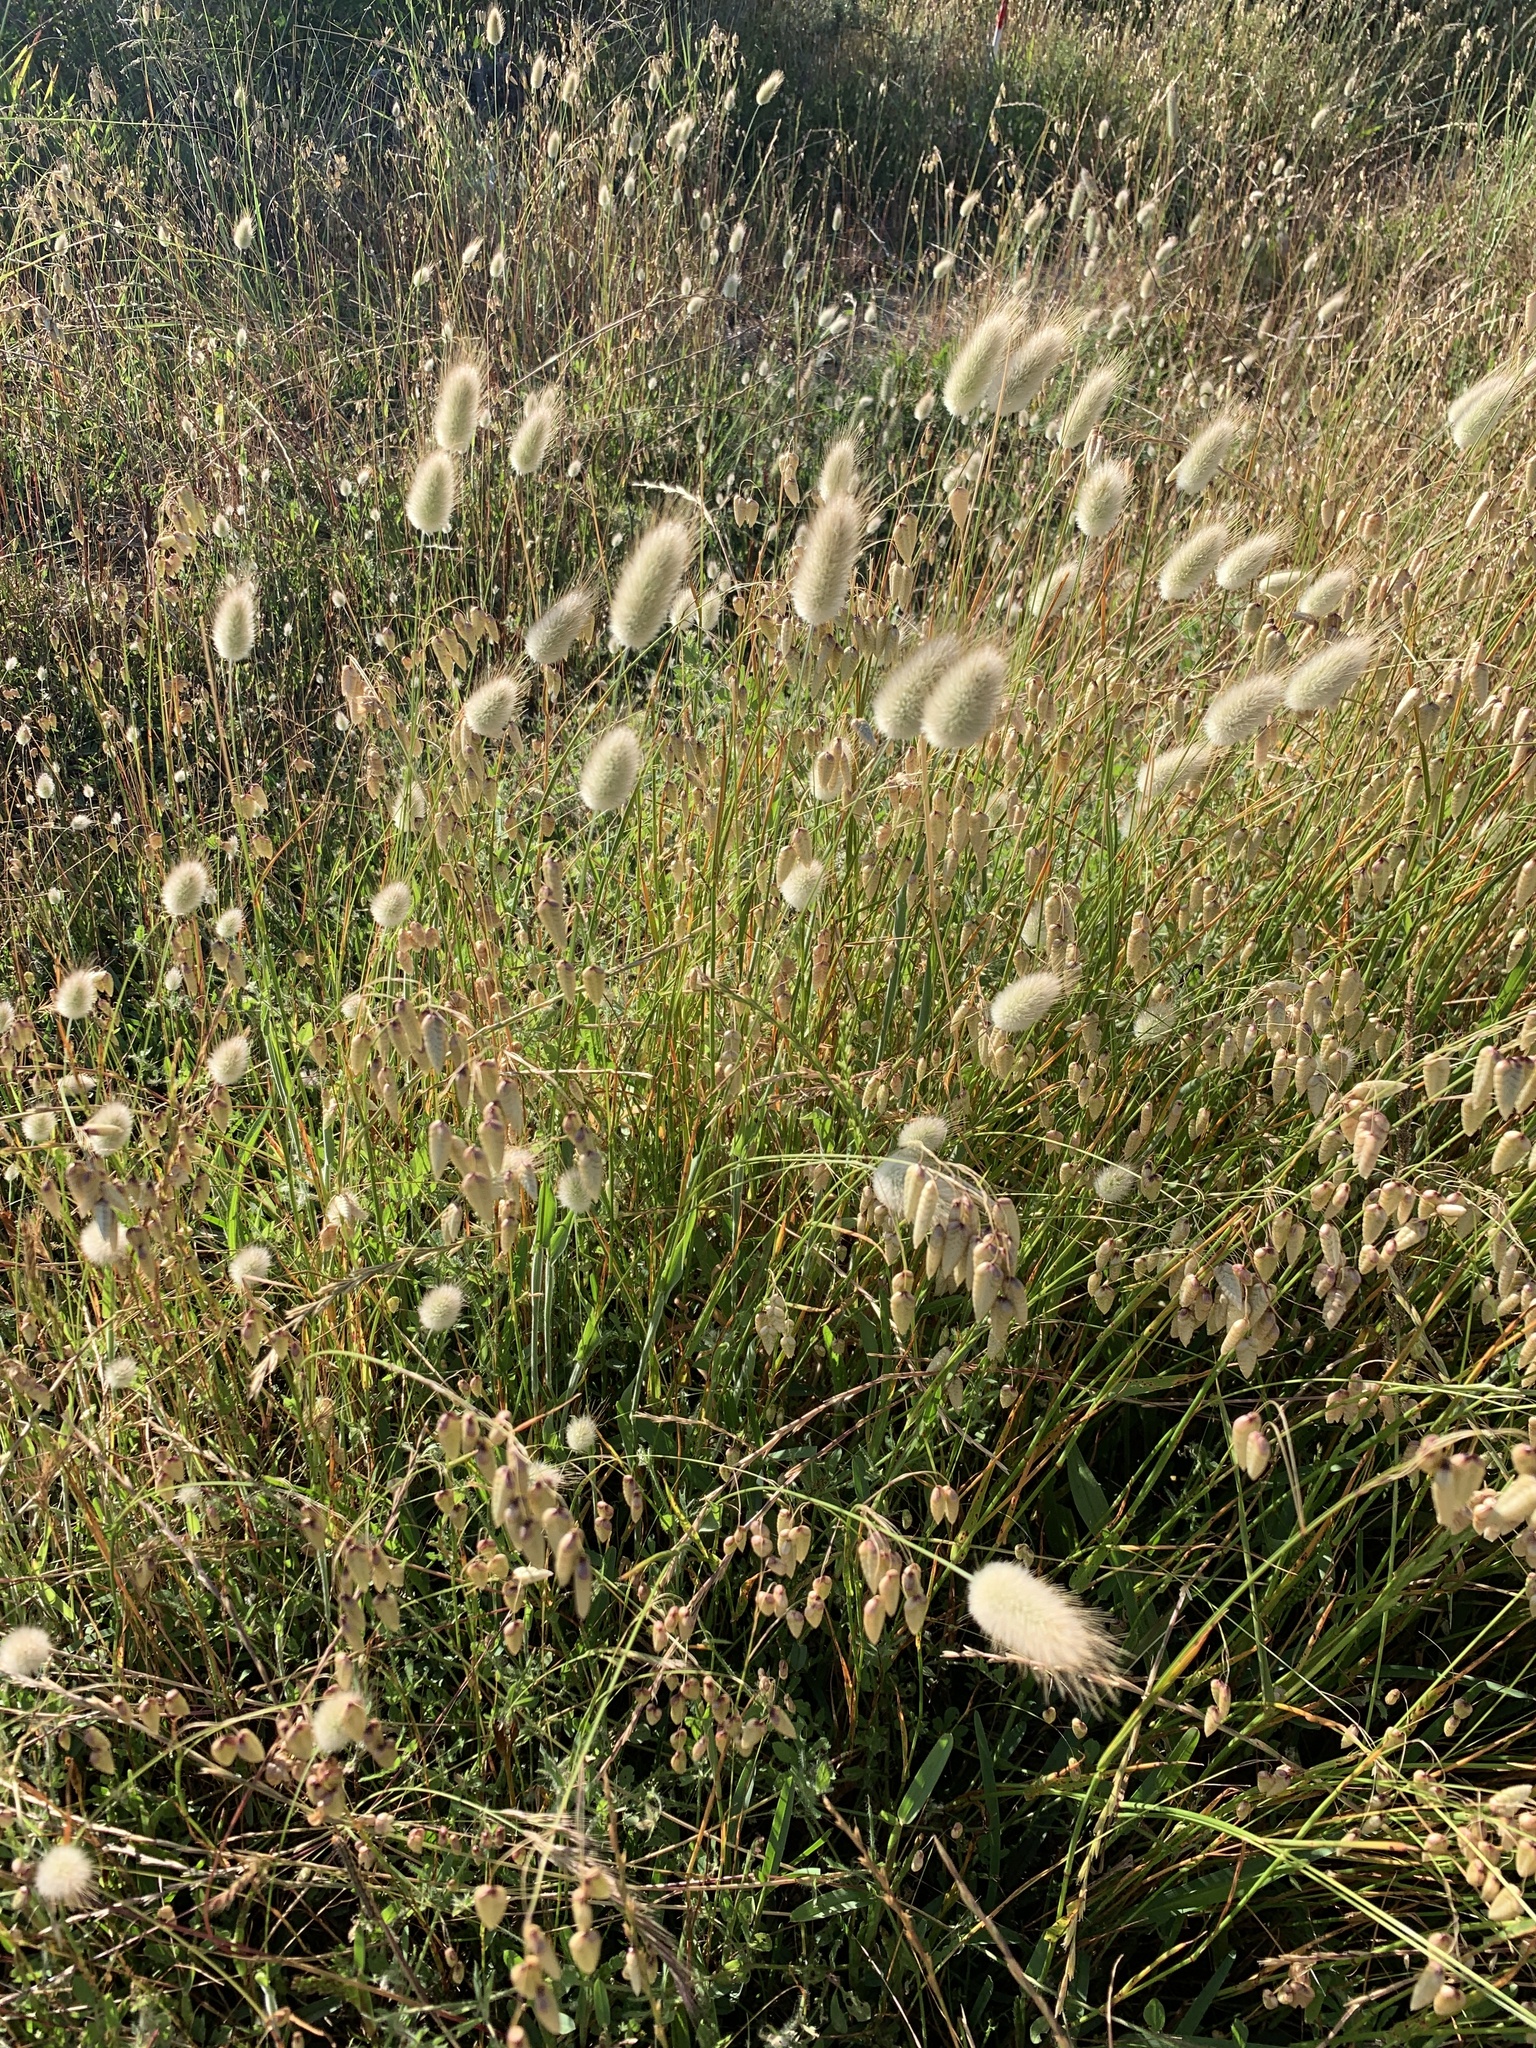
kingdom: Plantae
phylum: Tracheophyta
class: Liliopsida
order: Poales
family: Poaceae
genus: Lagurus
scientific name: Lagurus ovatus
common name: Hare's-tail
